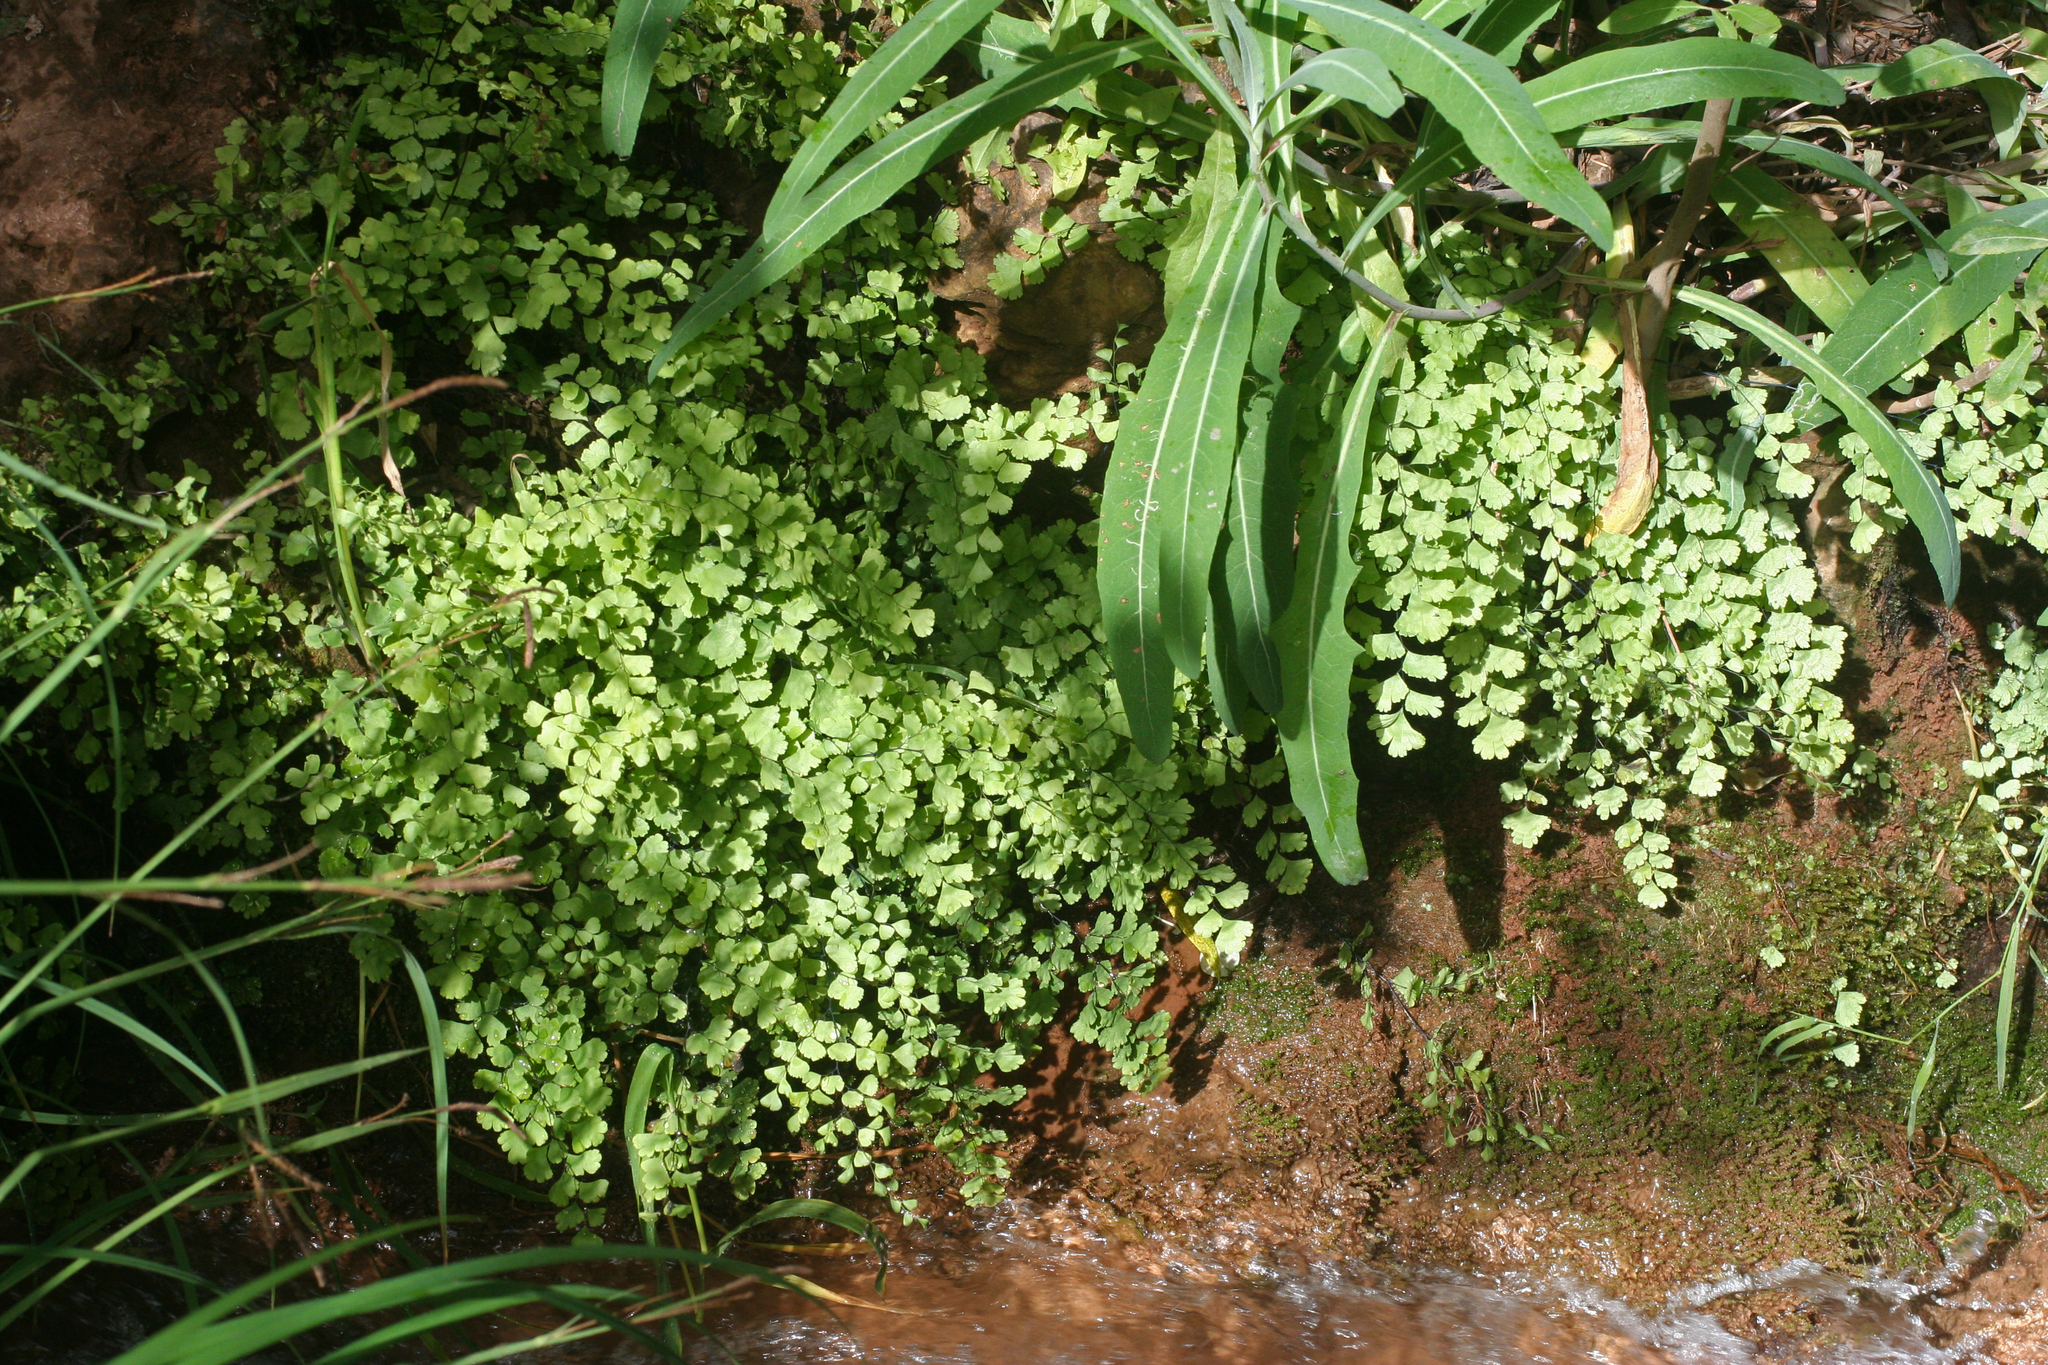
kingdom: Plantae
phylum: Tracheophyta
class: Polypodiopsida
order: Polypodiales
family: Pteridaceae
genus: Adiantum
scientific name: Adiantum capillus-veneris
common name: Maidenhair fern
